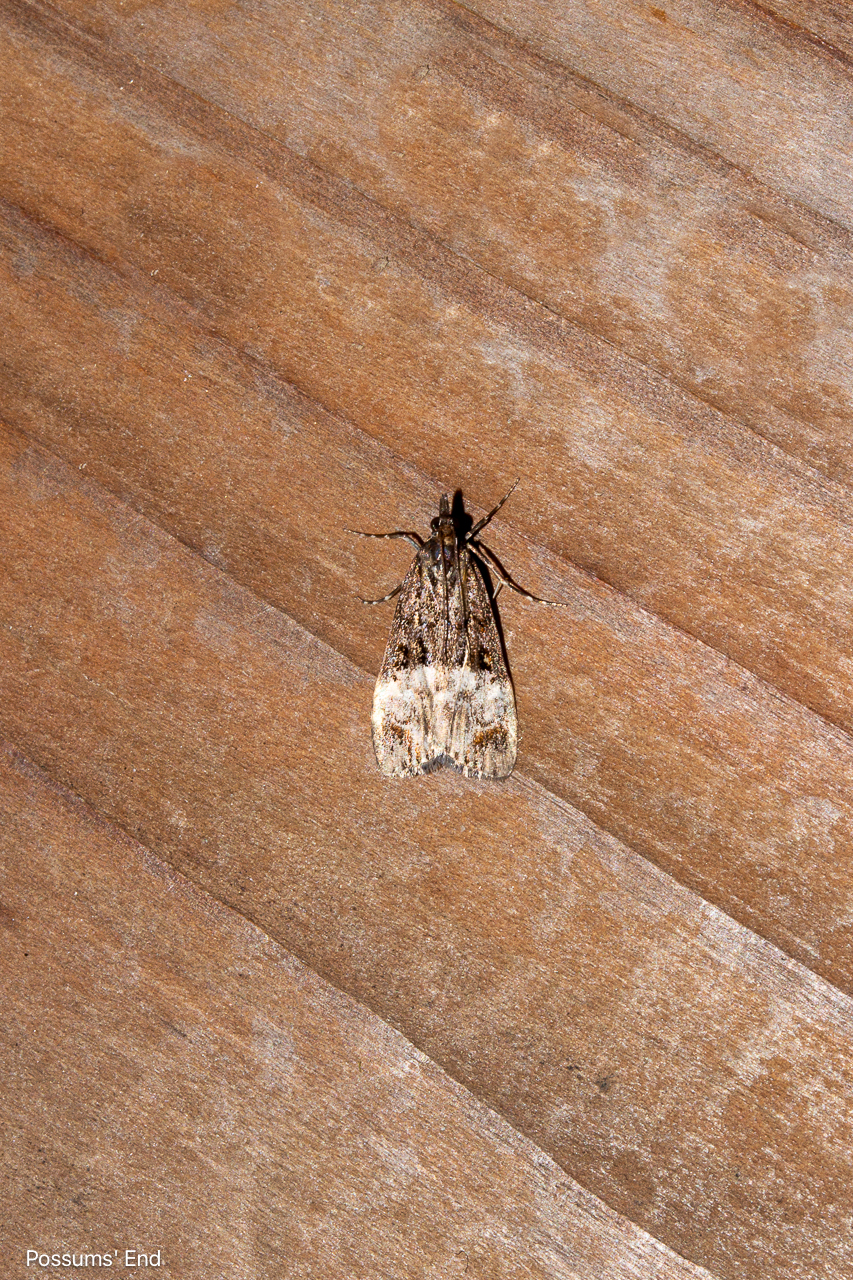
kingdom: Animalia
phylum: Arthropoda
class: Insecta
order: Lepidoptera
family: Crambidae
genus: Scoparia
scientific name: Scoparia minusculalis
